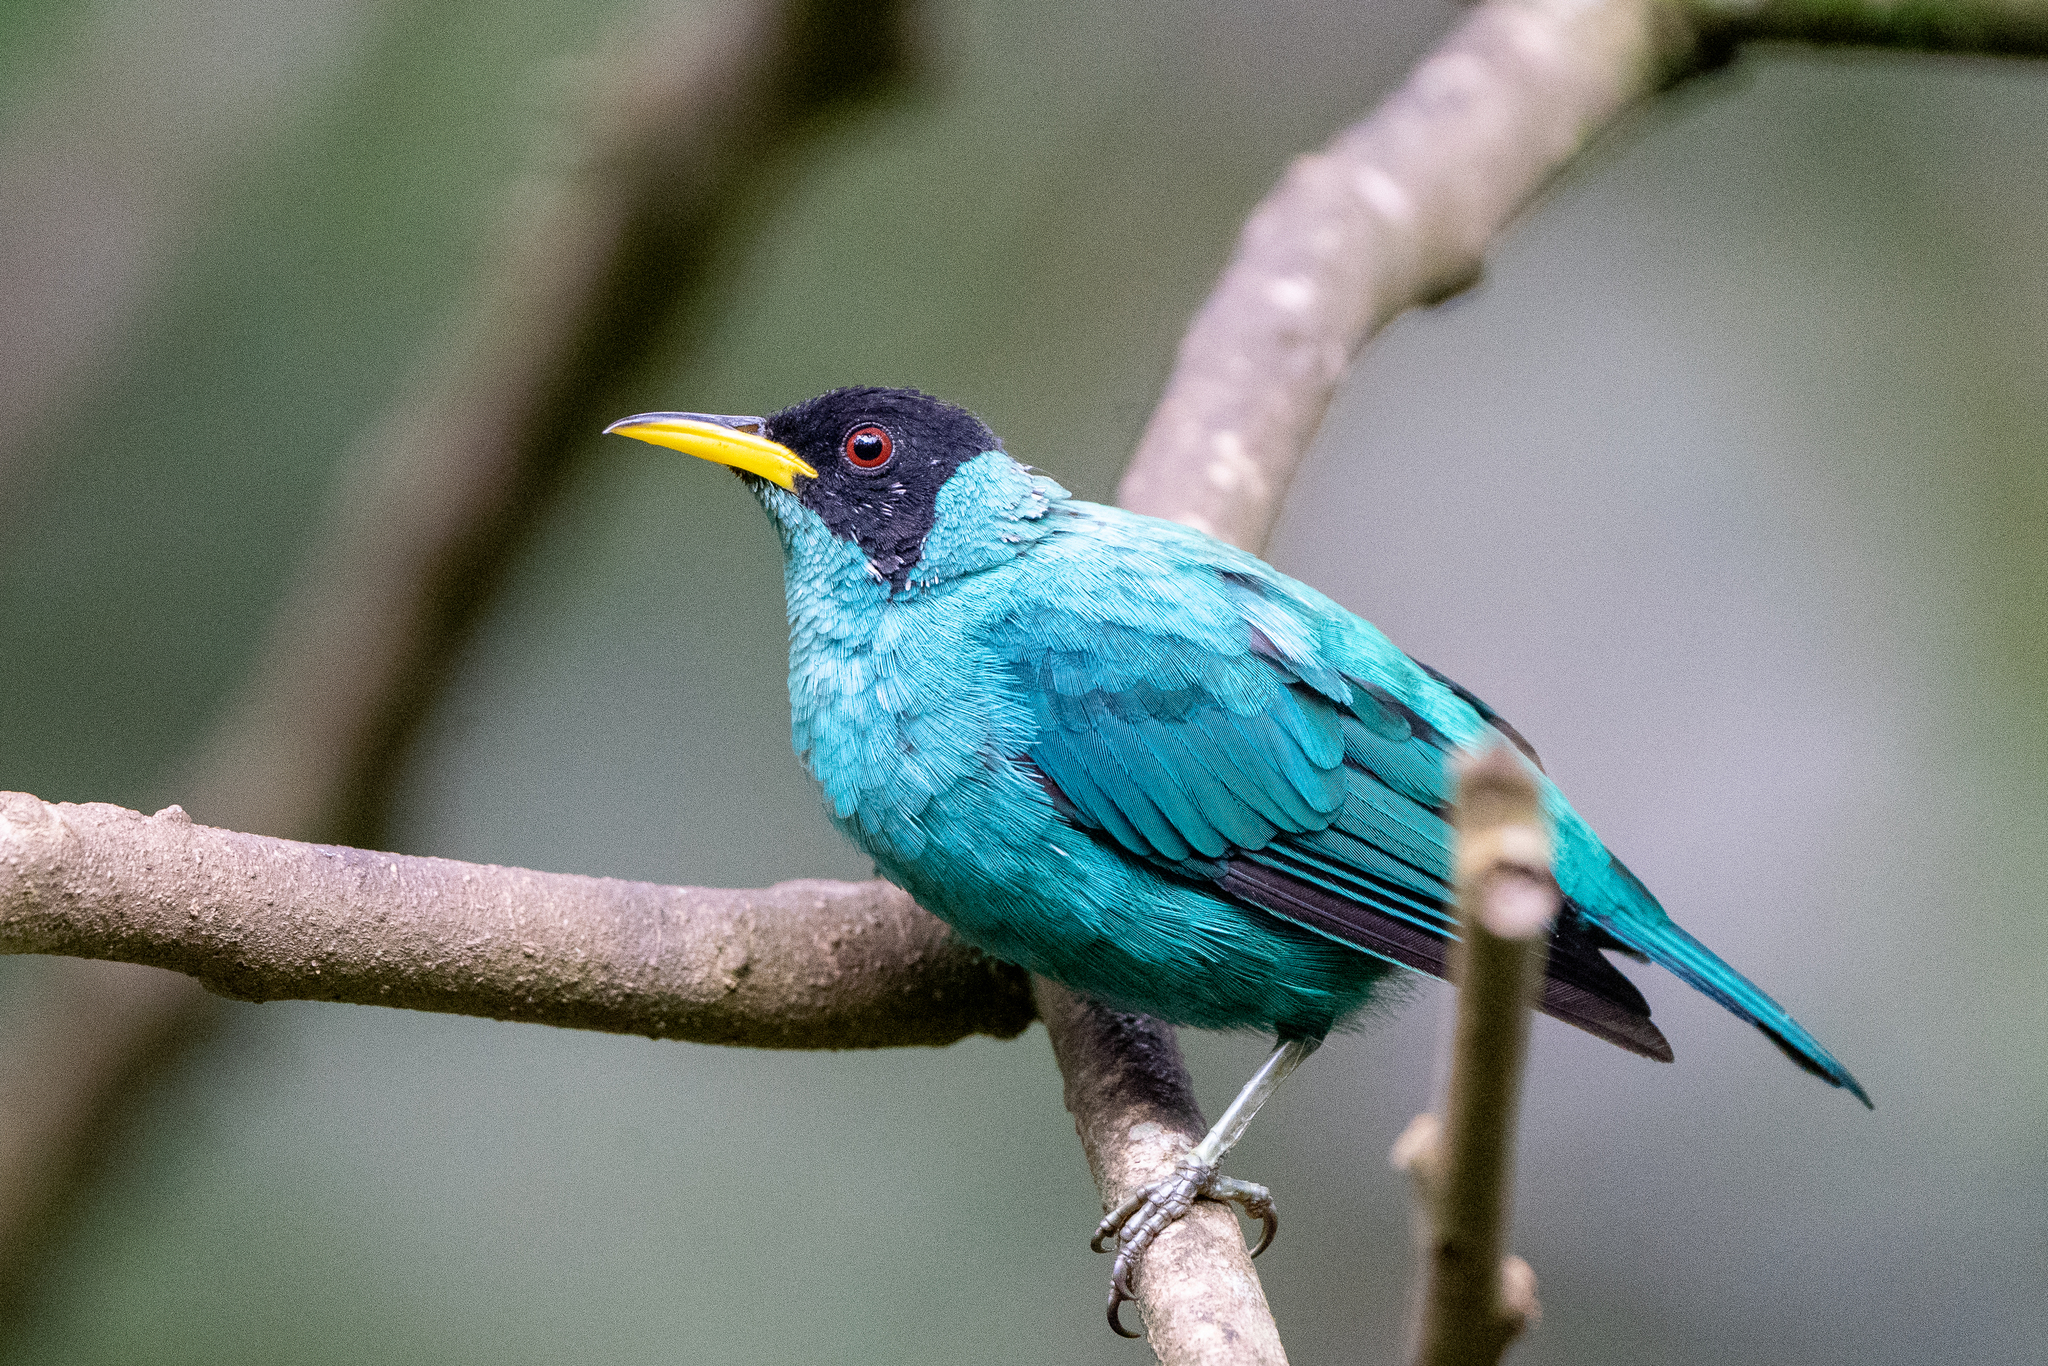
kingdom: Animalia
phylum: Chordata
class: Aves
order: Passeriformes
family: Thraupidae
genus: Chlorophanes
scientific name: Chlorophanes spiza
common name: Green honeycreeper
